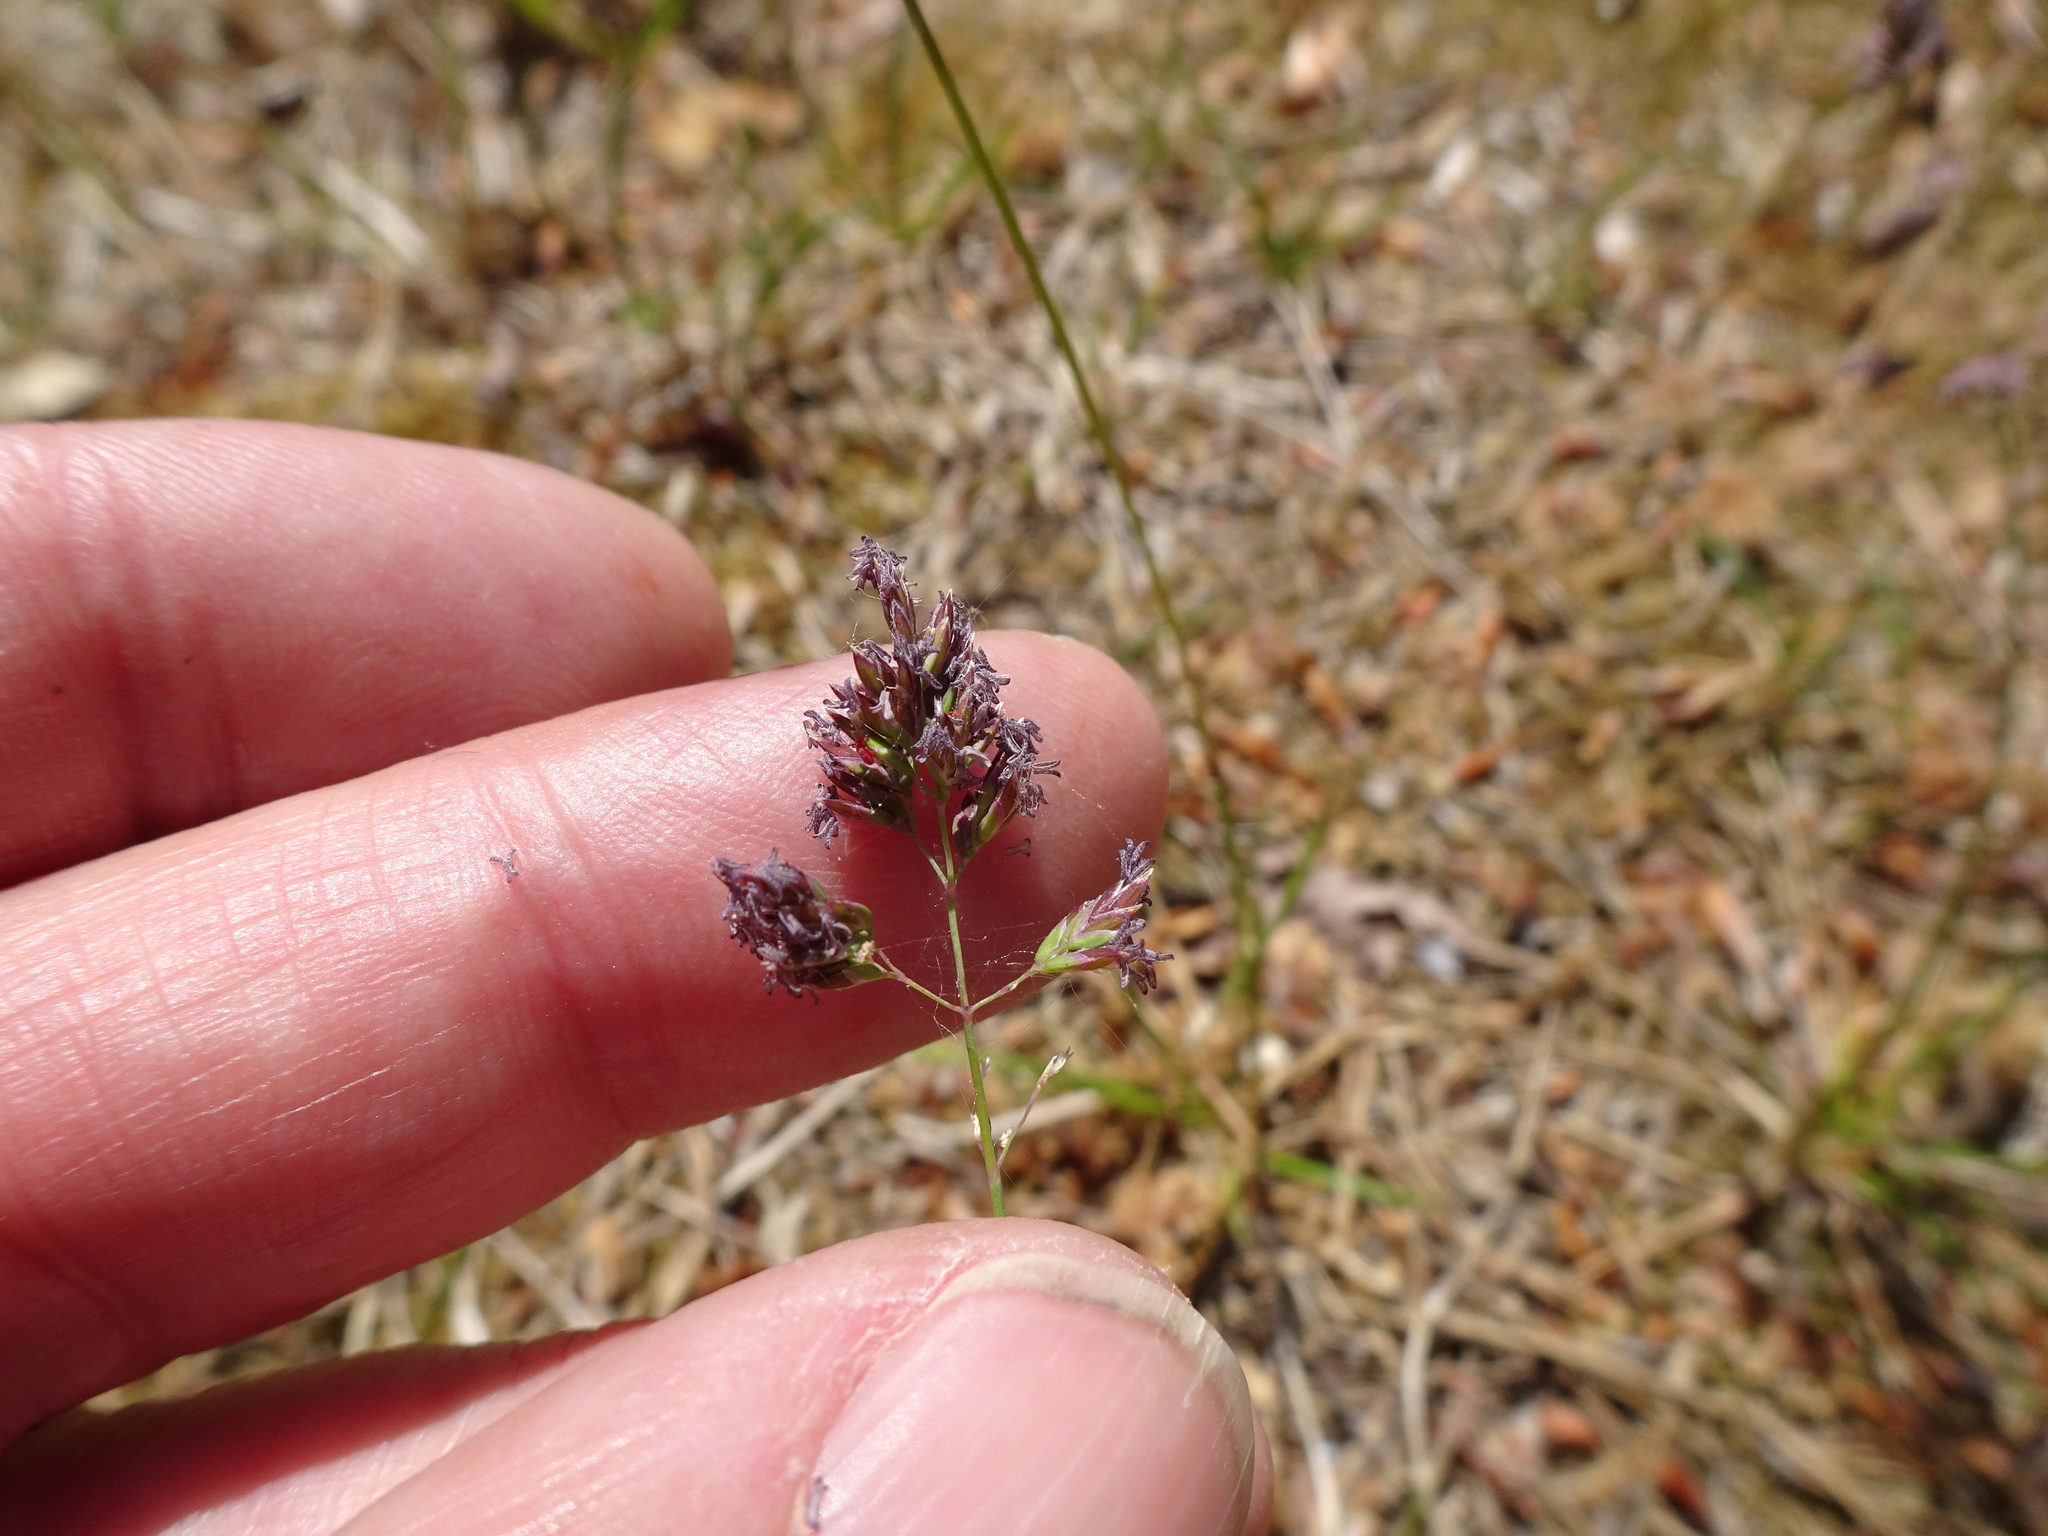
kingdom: Plantae
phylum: Tracheophyta
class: Liliopsida
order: Poales
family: Poaceae
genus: Poa
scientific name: Poa annua
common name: Annual bluegrass
